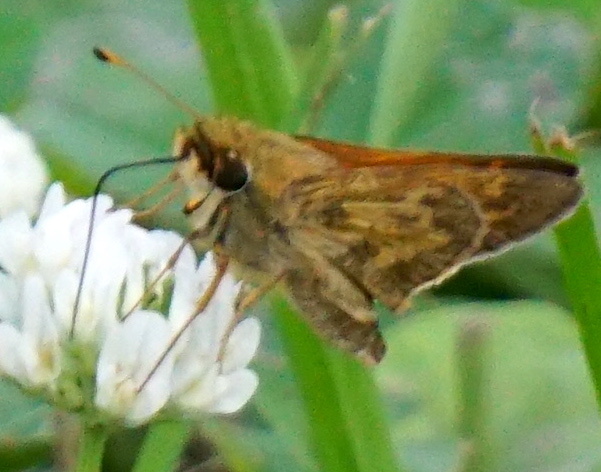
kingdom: Animalia
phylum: Arthropoda
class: Insecta
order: Lepidoptera
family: Hesperiidae
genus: Atalopedes
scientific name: Atalopedes
